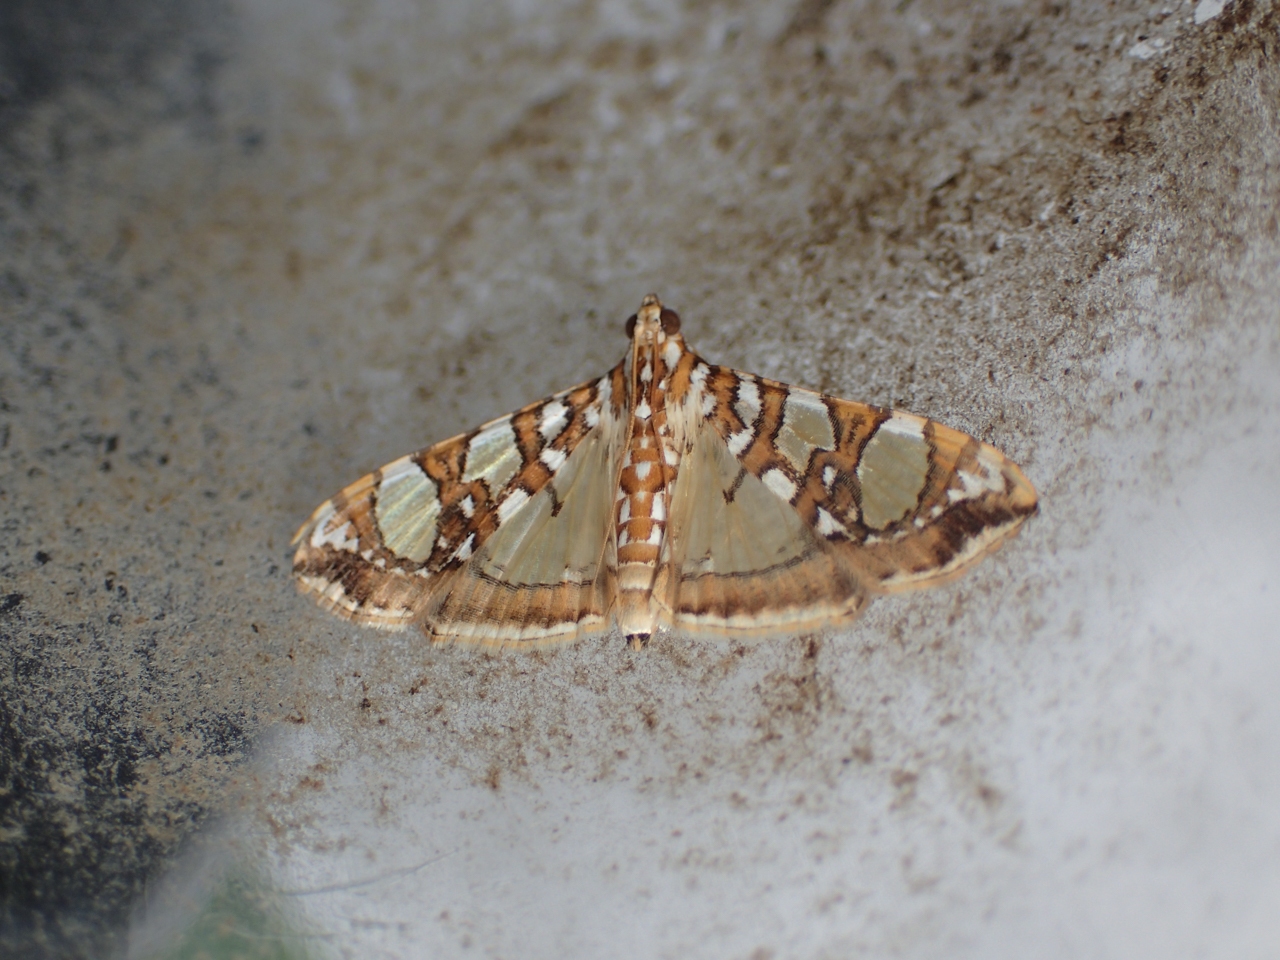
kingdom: Animalia
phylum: Arthropoda
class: Insecta
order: Lepidoptera
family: Crambidae
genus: Glyphodes
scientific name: Glyphodes sibillalis
